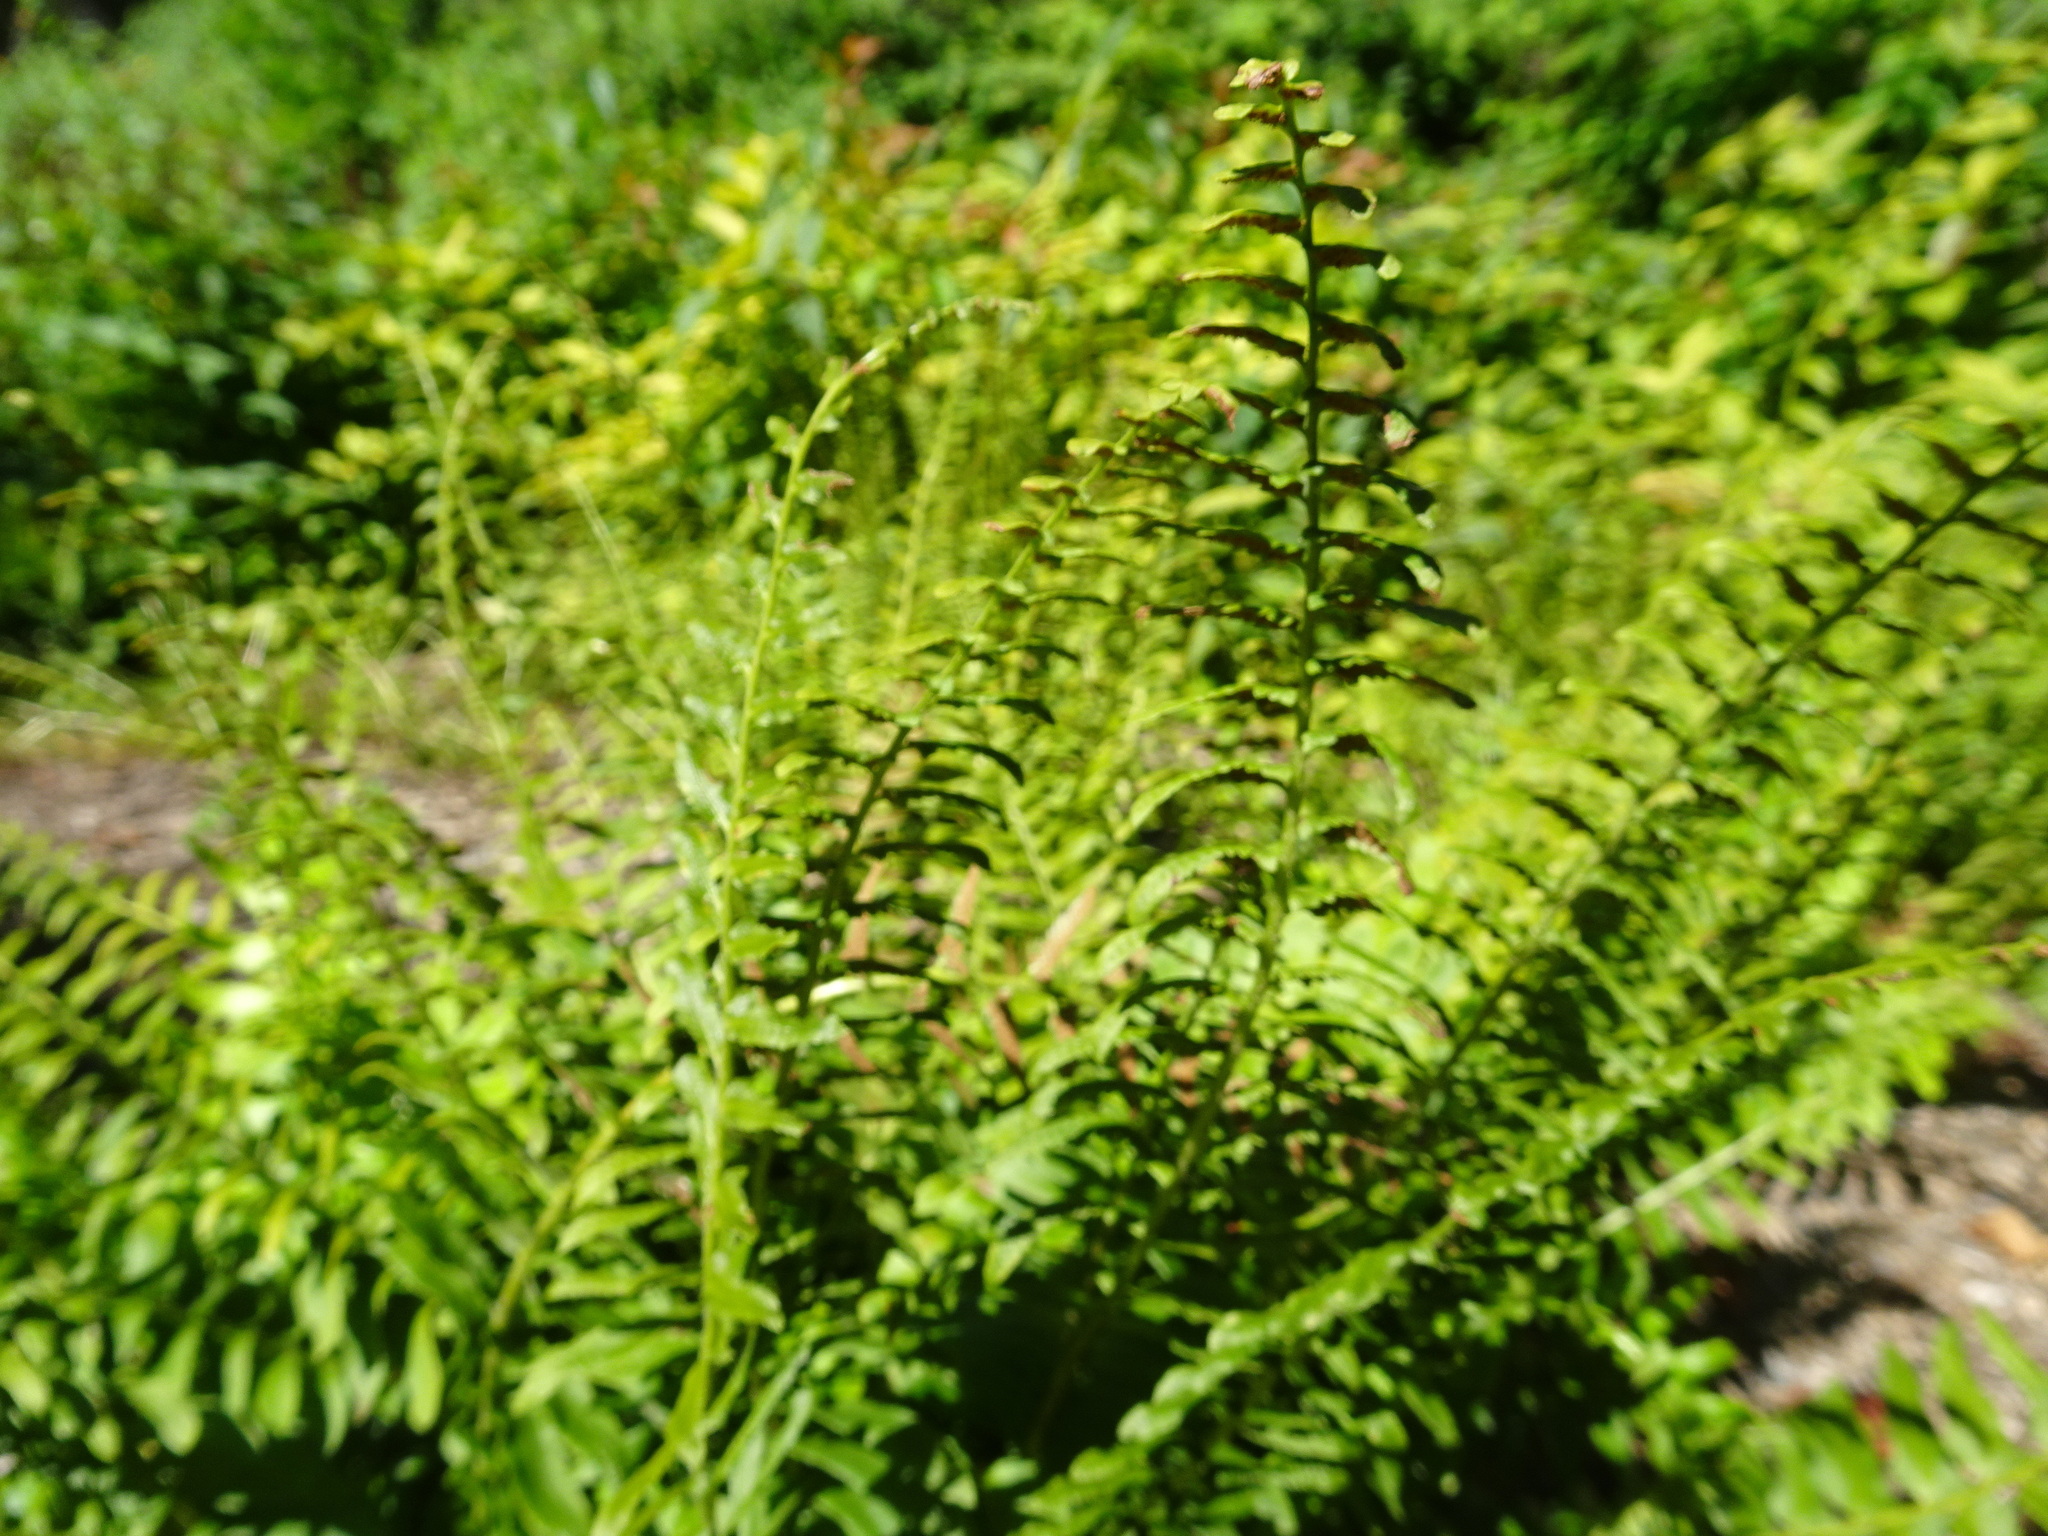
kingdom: Plantae
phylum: Tracheophyta
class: Polypodiopsida
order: Polypodiales
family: Dryopteridaceae
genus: Polystichum
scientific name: Polystichum acrostichoides
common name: Christmas fern
